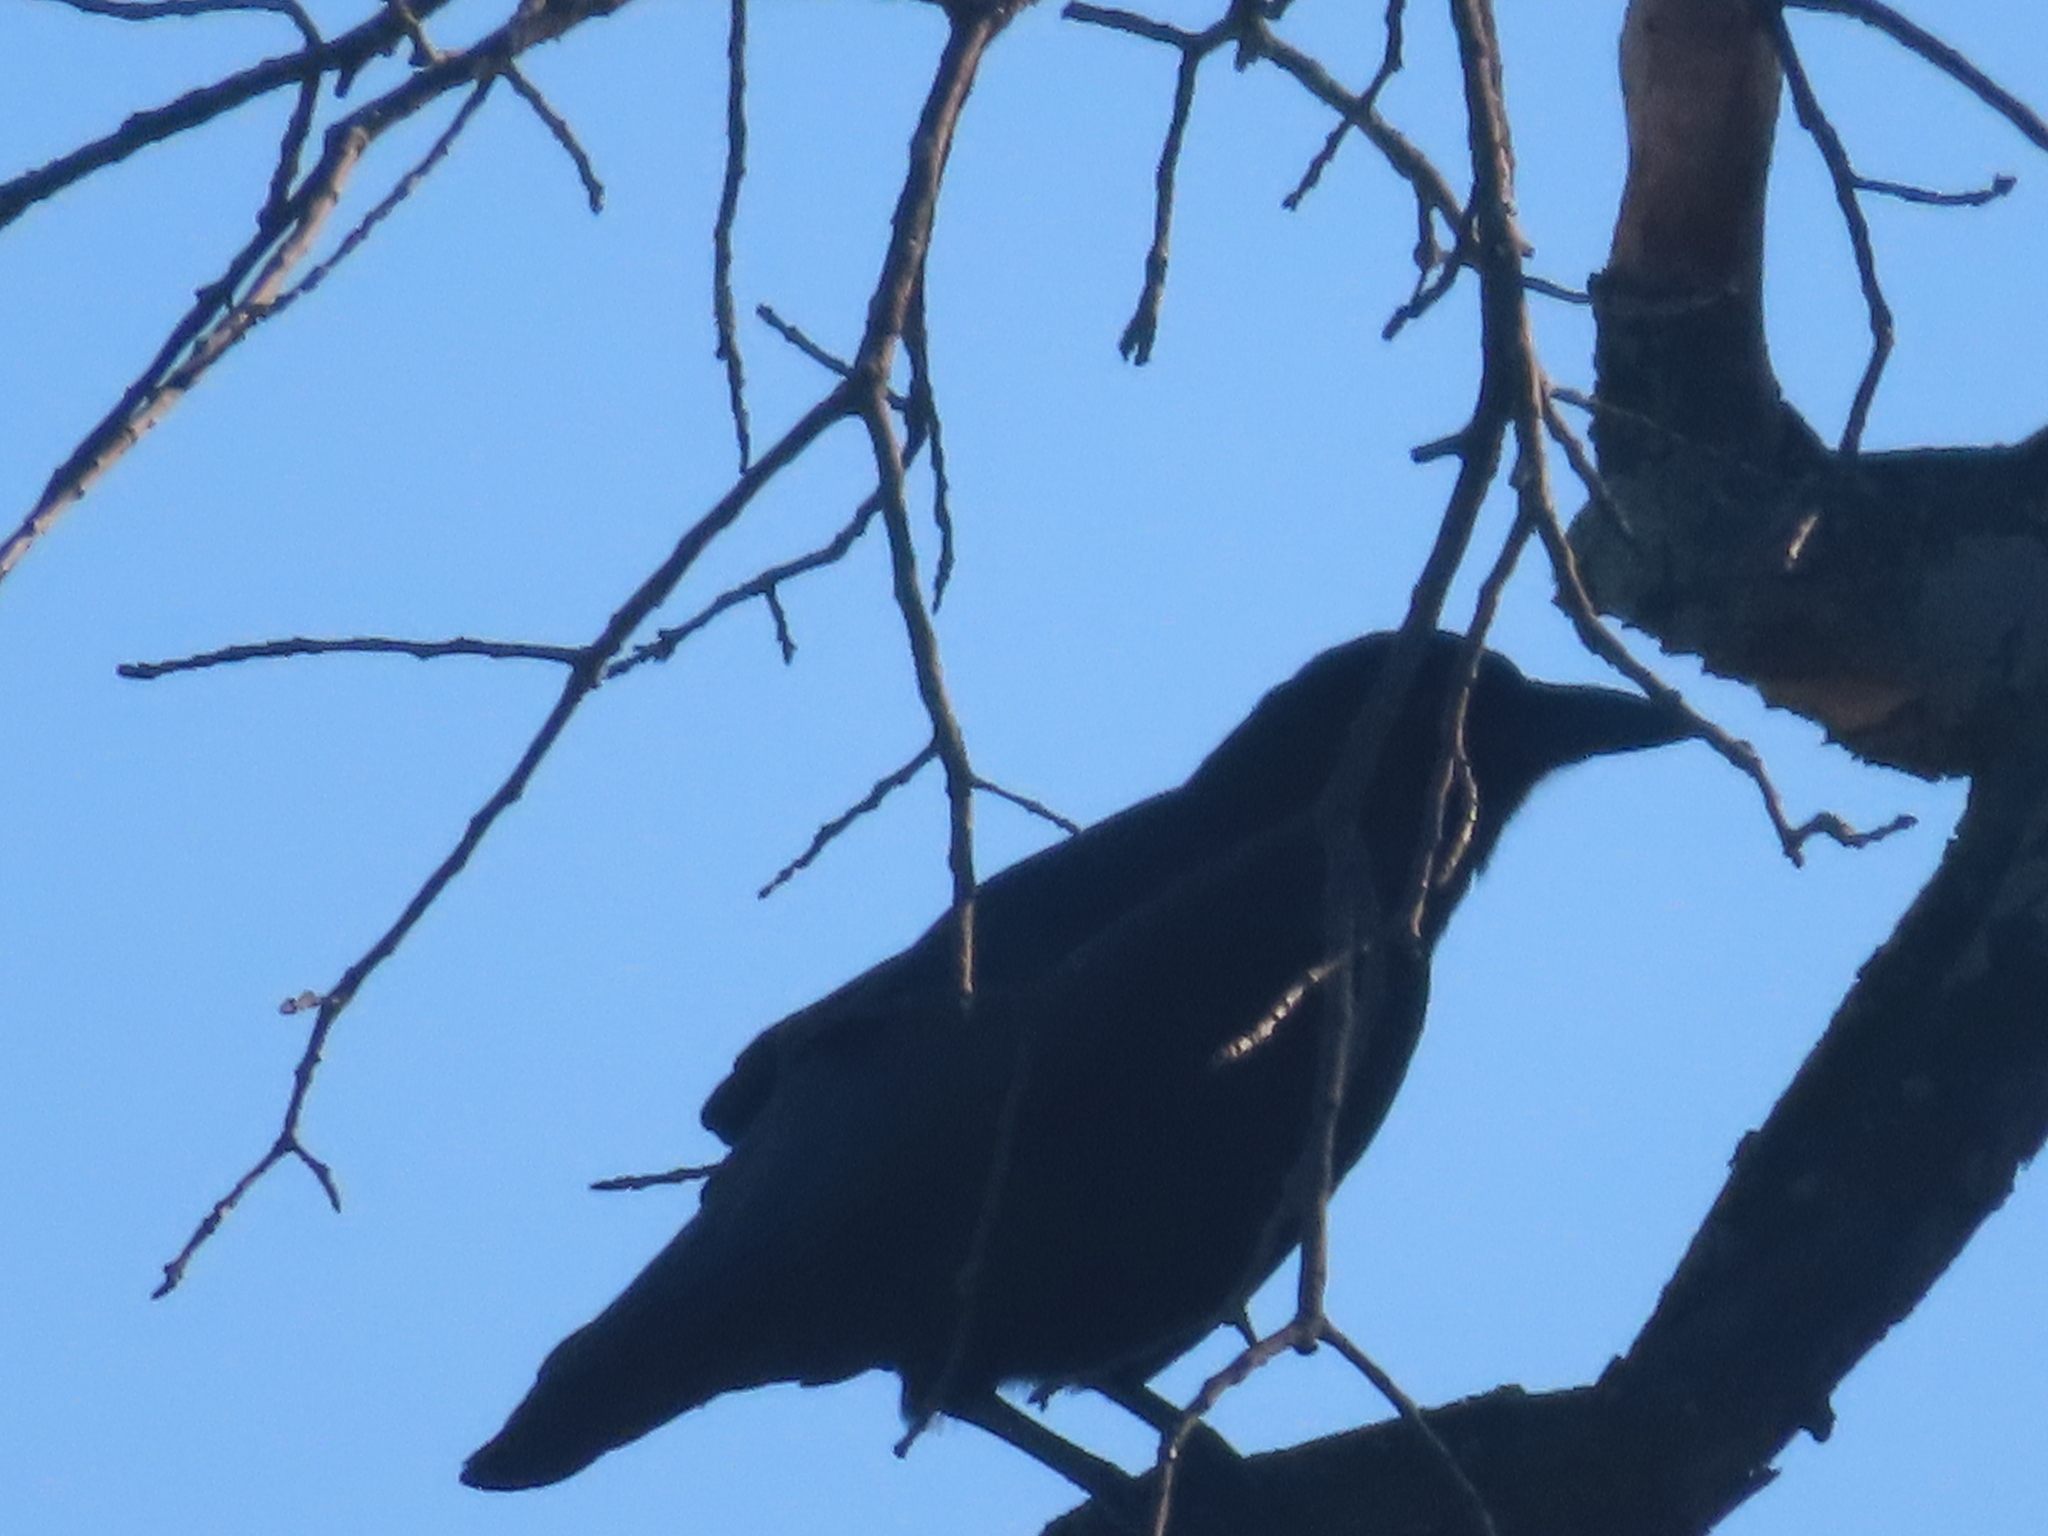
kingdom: Animalia
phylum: Chordata
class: Aves
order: Passeriformes
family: Corvidae
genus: Corvus
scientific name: Corvus brachyrhynchos
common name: American crow
